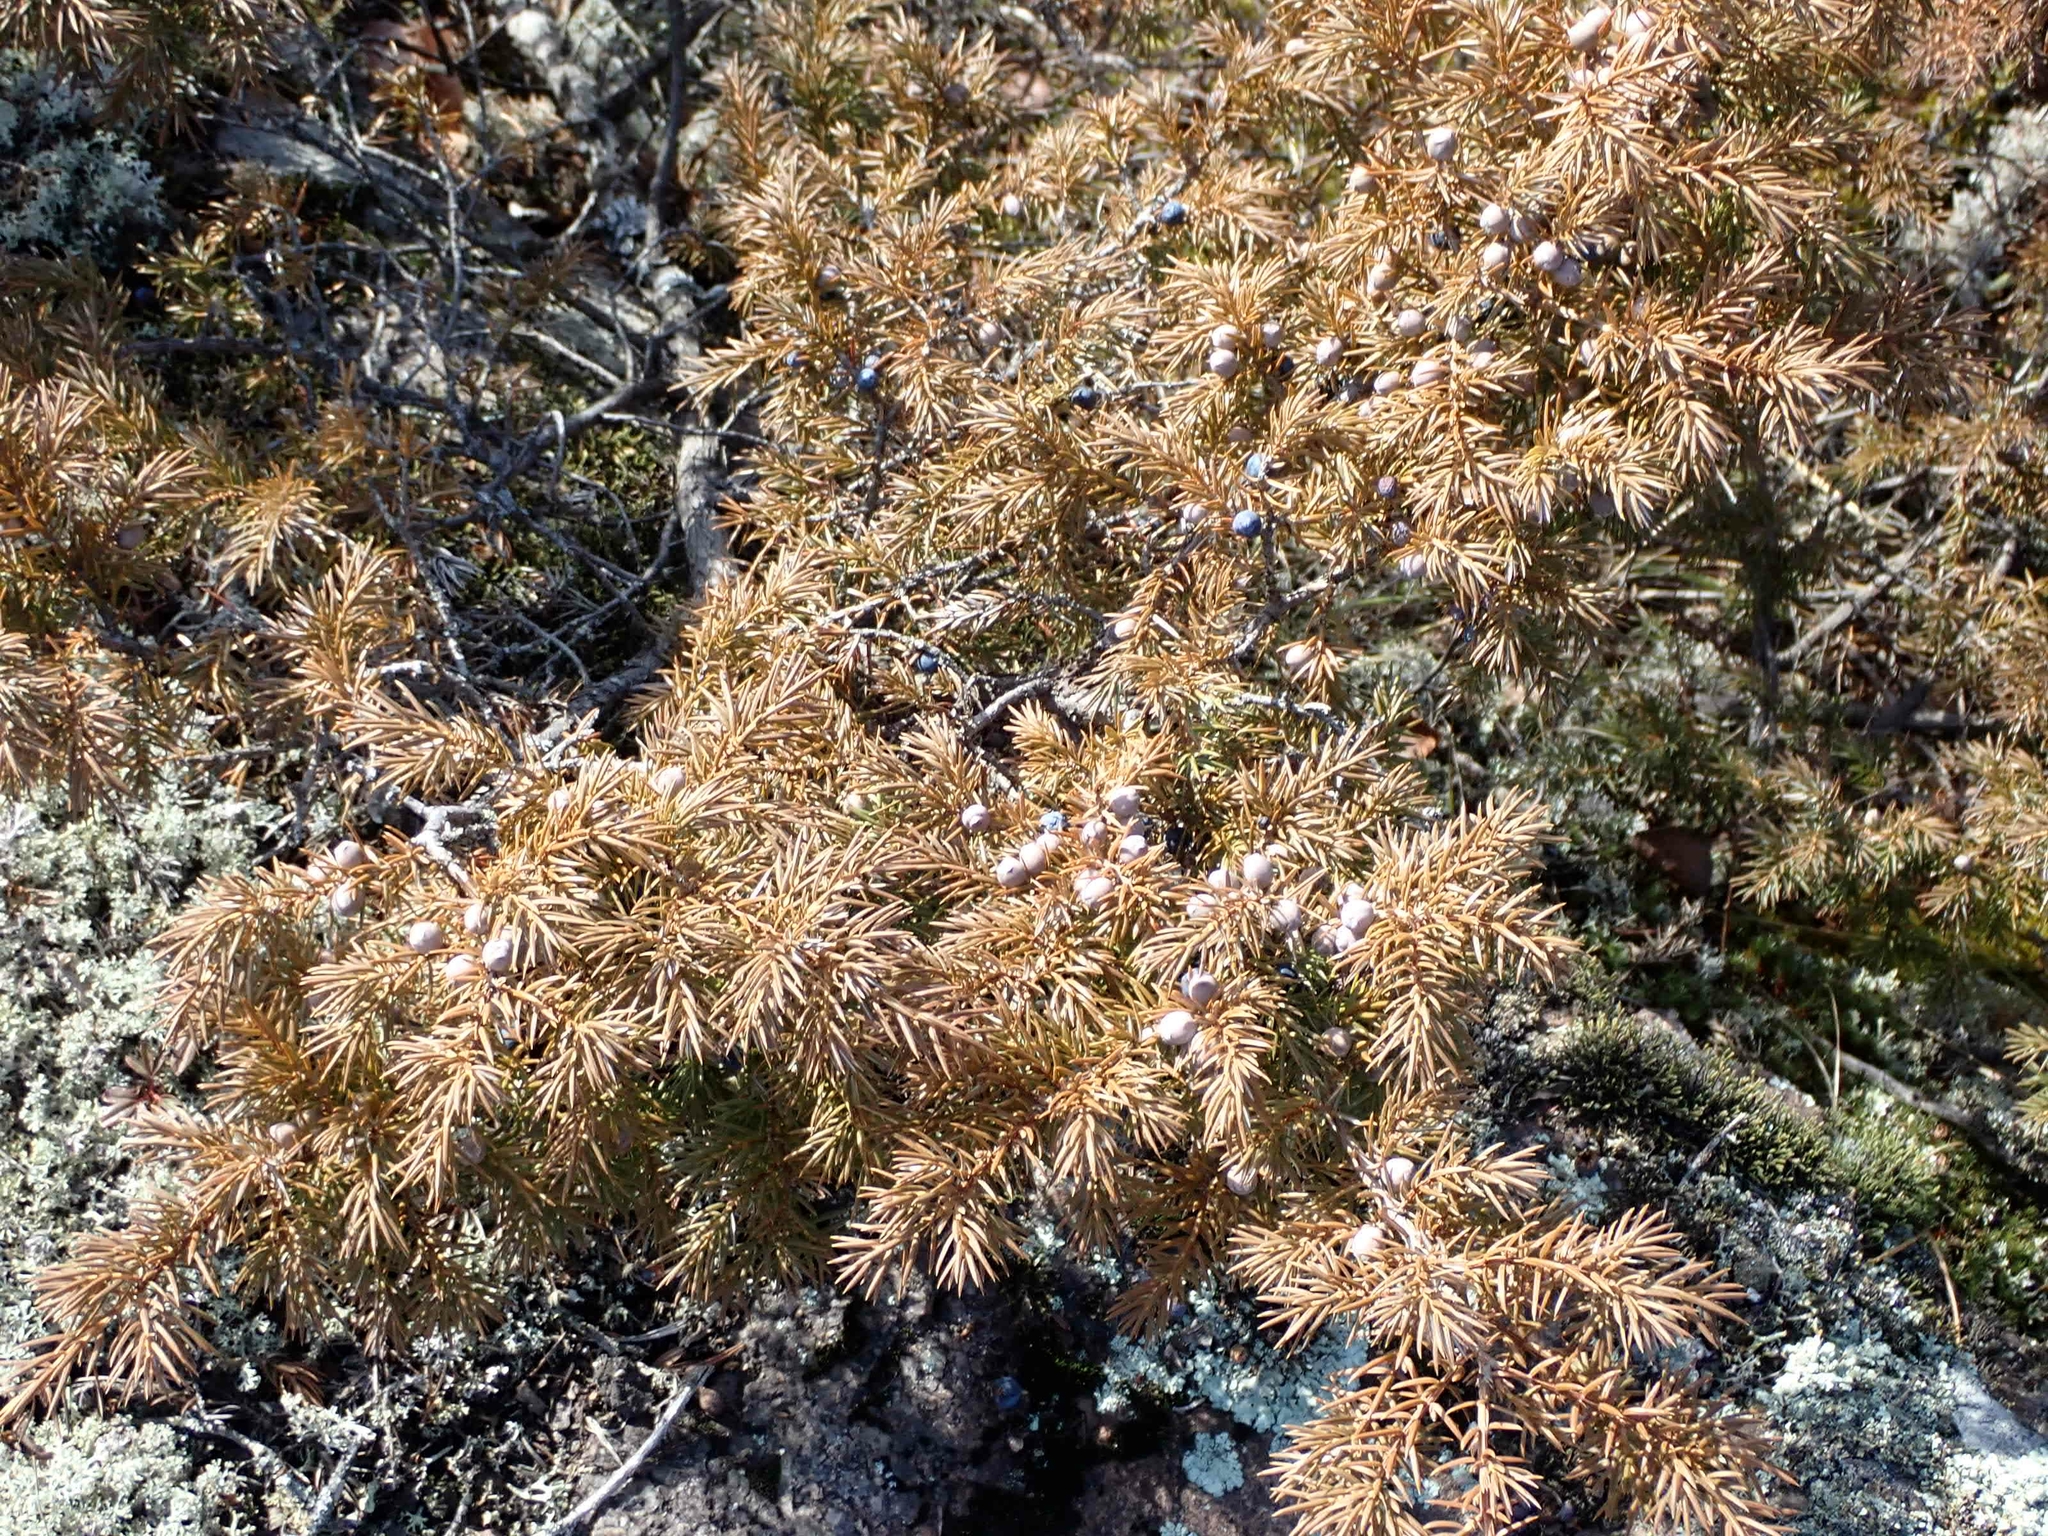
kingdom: Plantae
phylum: Tracheophyta
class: Pinopsida
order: Pinales
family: Cupressaceae
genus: Juniperus
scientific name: Juniperus communis
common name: Common juniper
